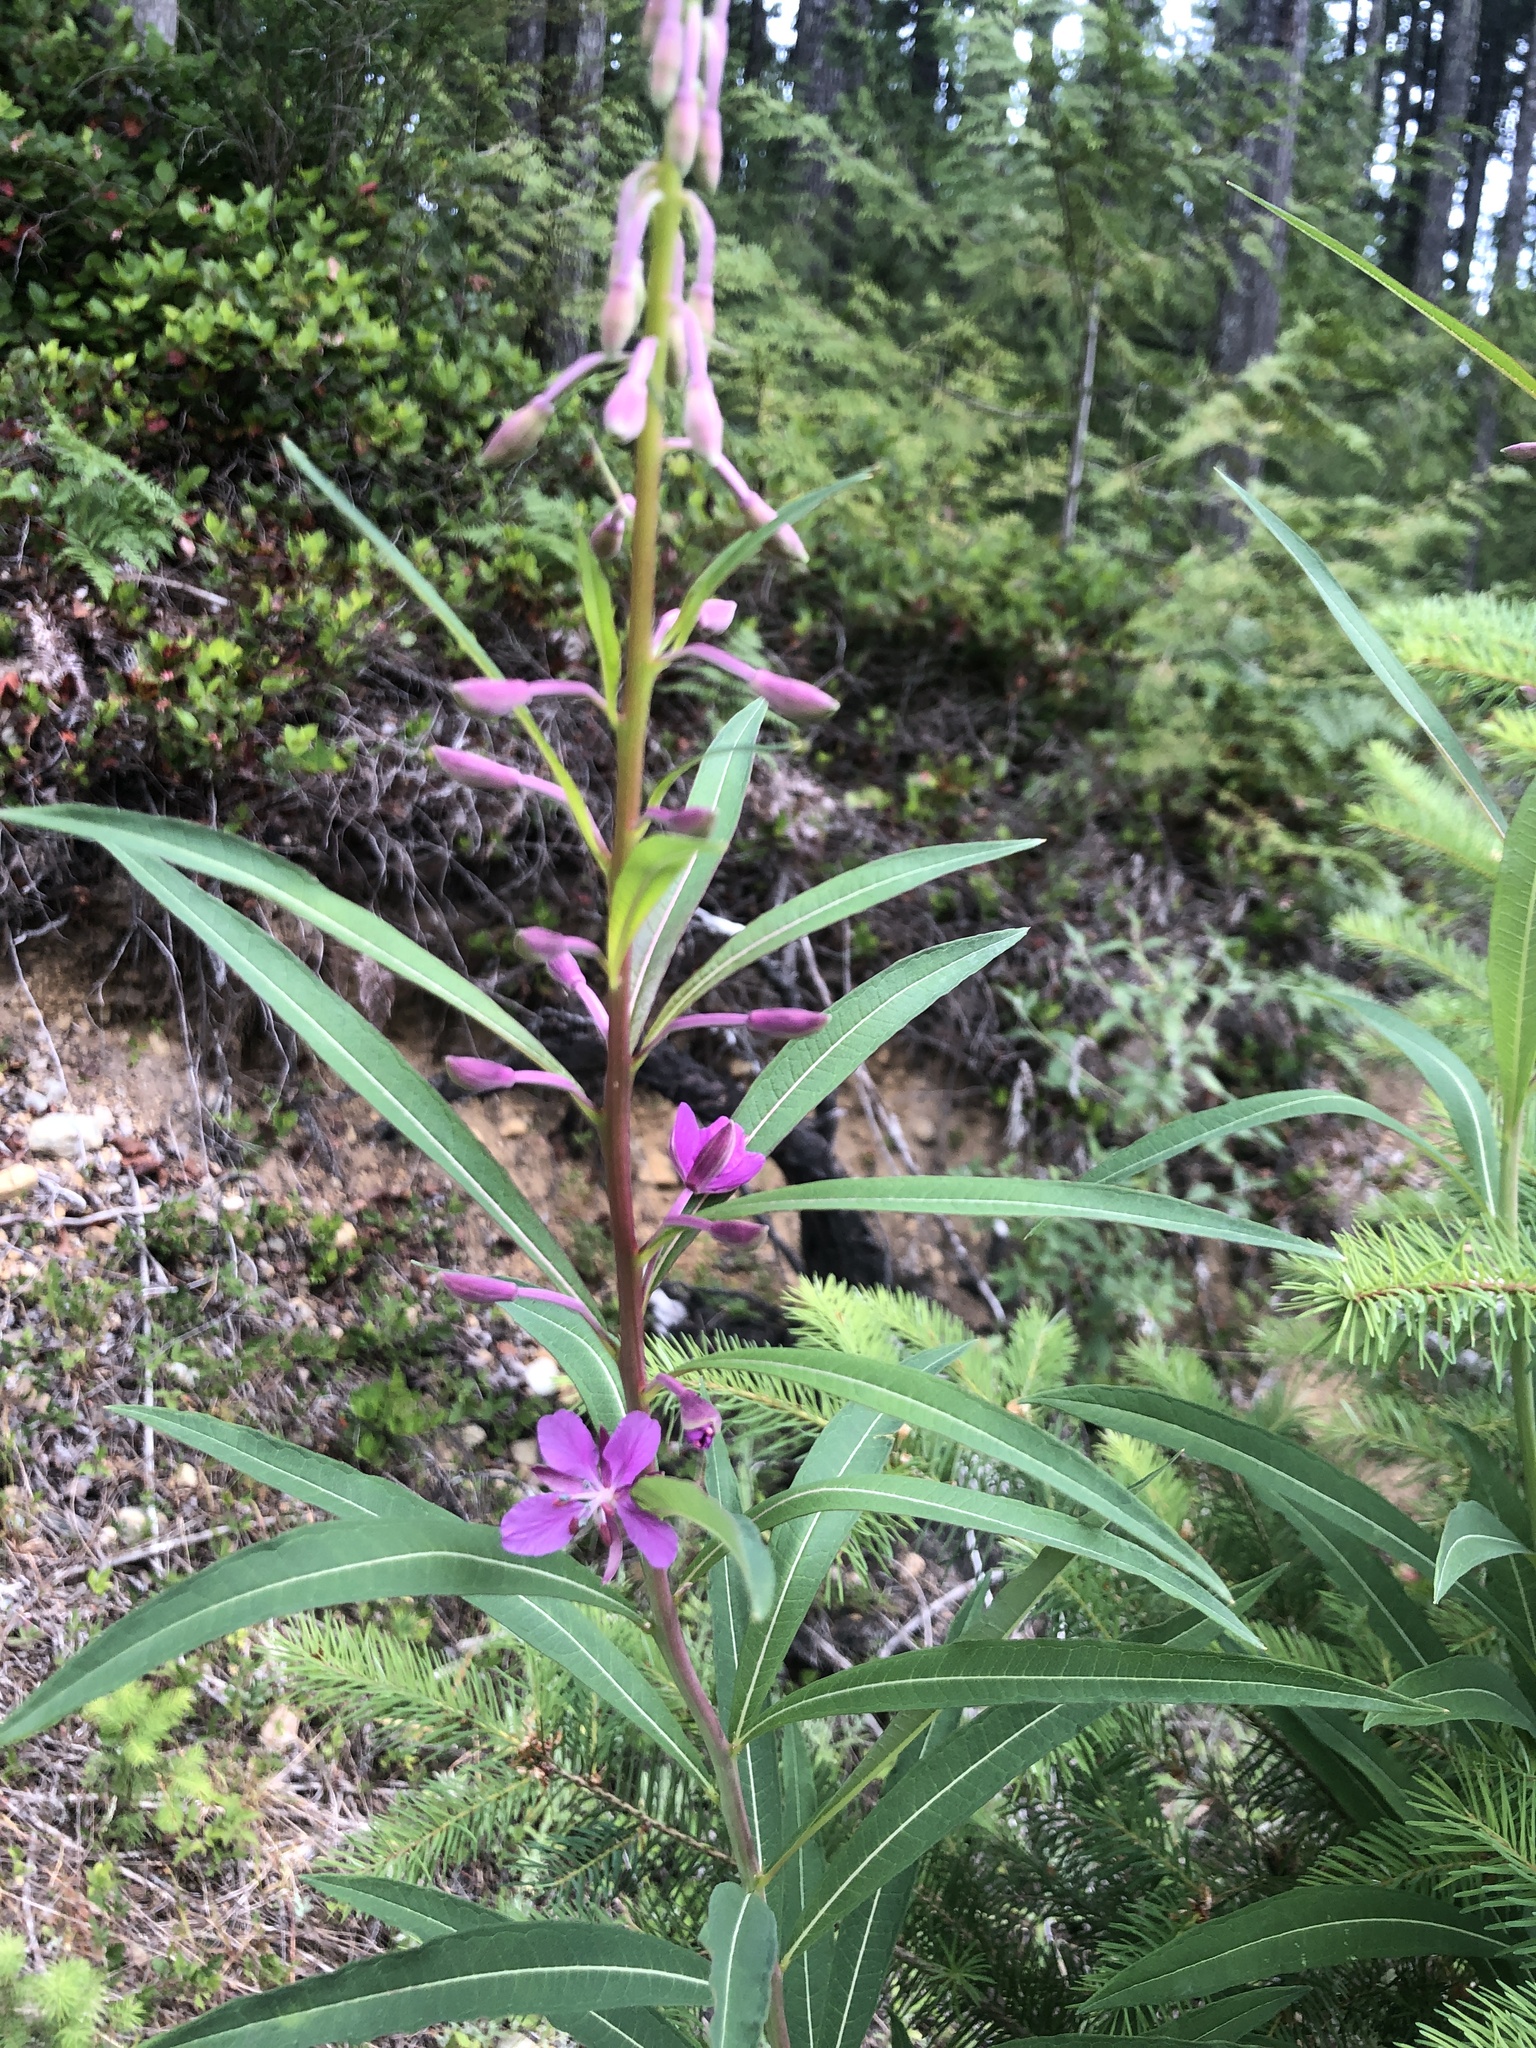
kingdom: Plantae
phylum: Tracheophyta
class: Magnoliopsida
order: Myrtales
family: Onagraceae
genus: Chamaenerion
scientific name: Chamaenerion angustifolium
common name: Fireweed
